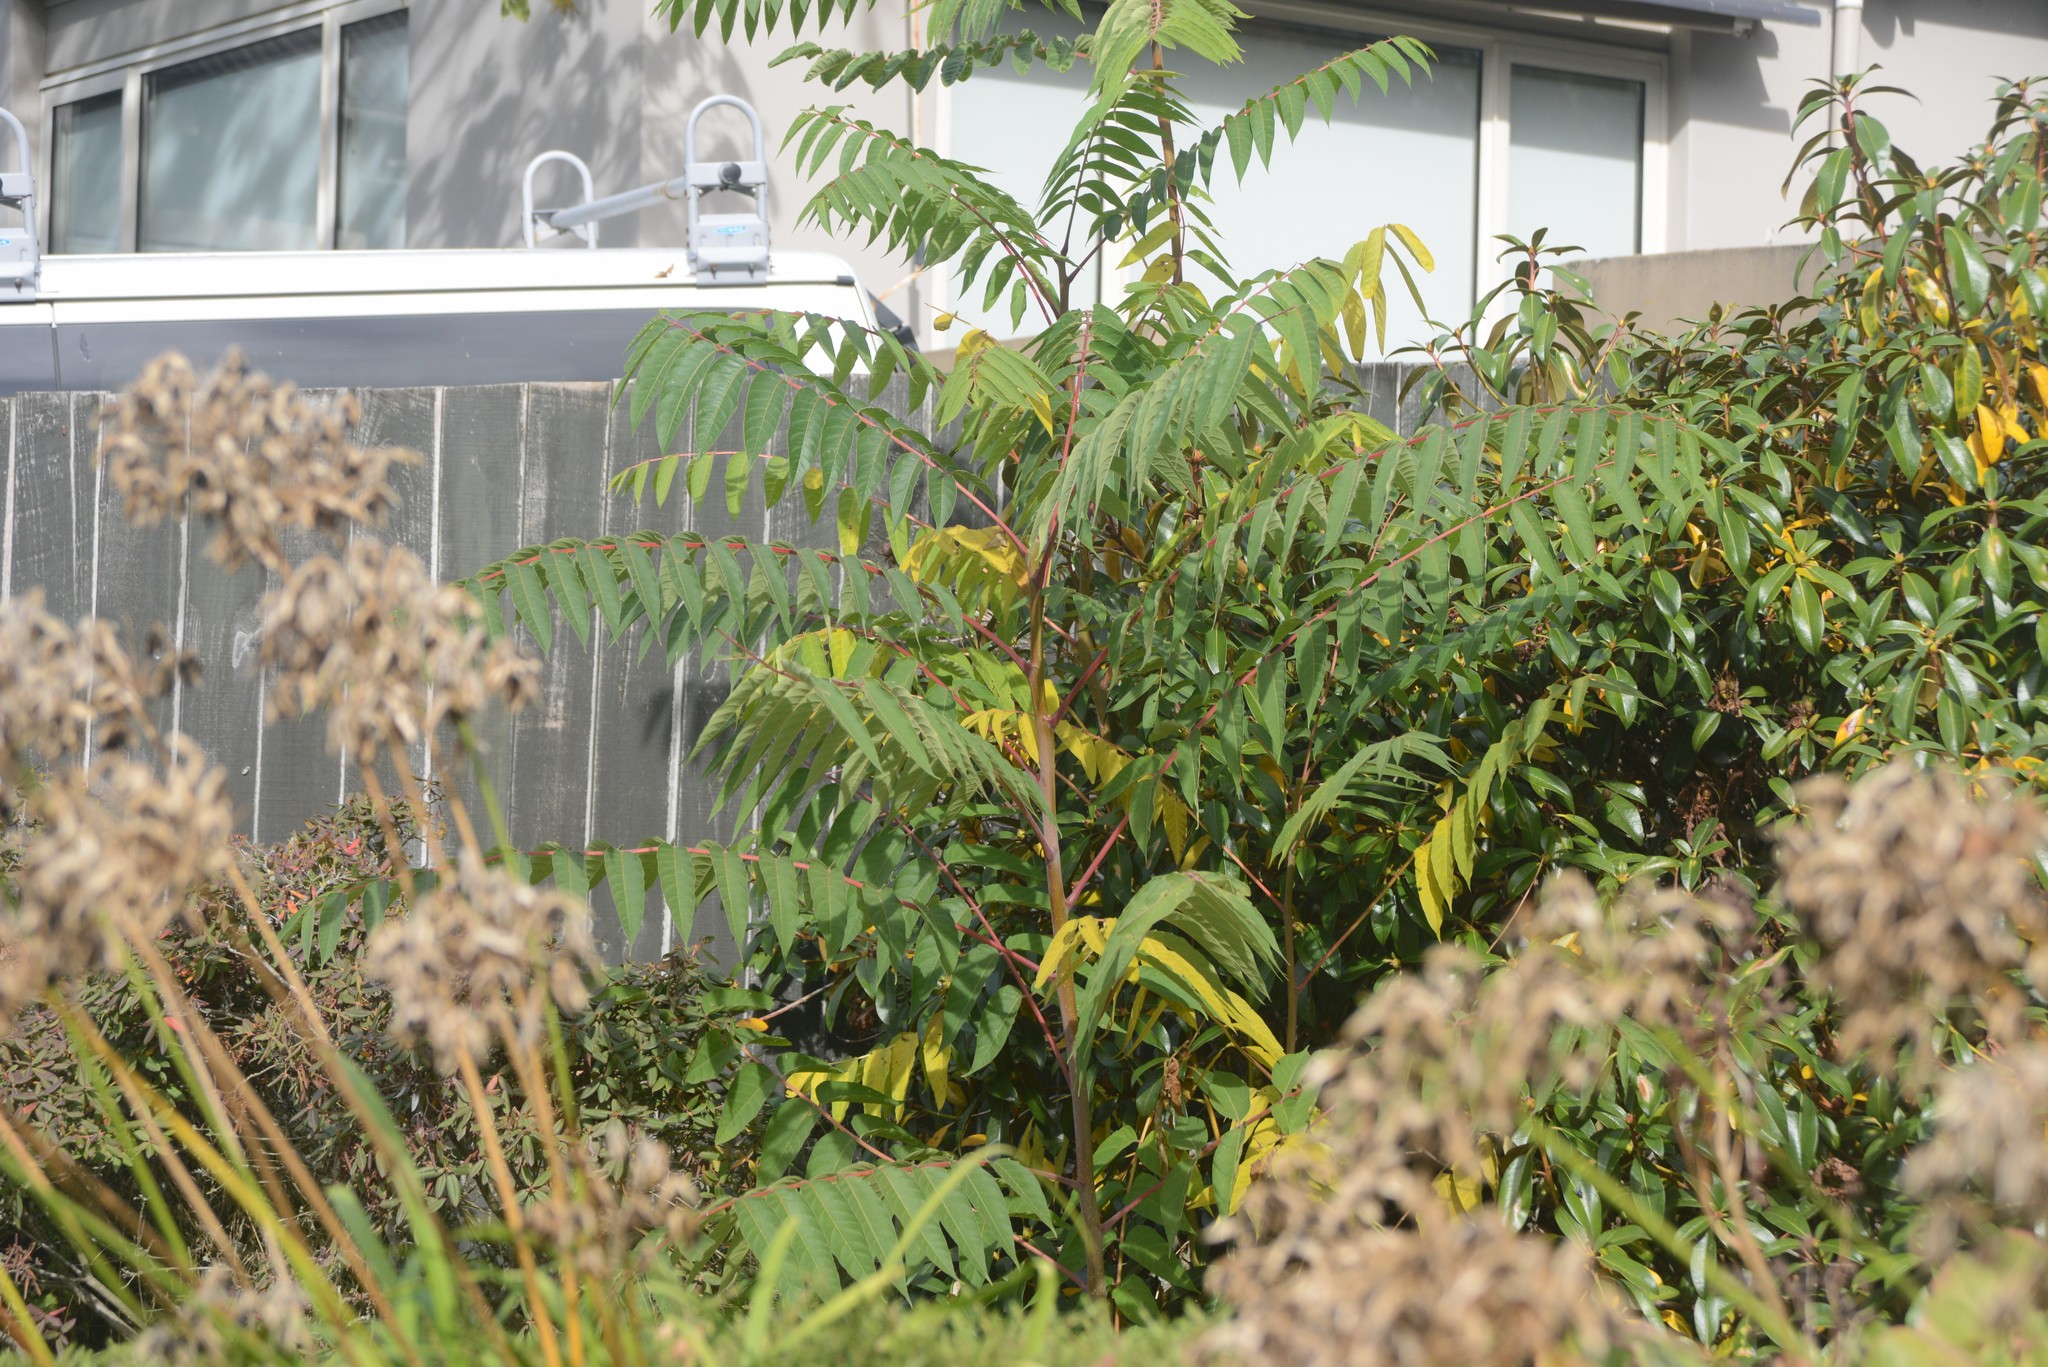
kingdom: Plantae
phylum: Tracheophyta
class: Magnoliopsida
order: Sapindales
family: Simaroubaceae
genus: Ailanthus
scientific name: Ailanthus altissima
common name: Tree-of-heaven
